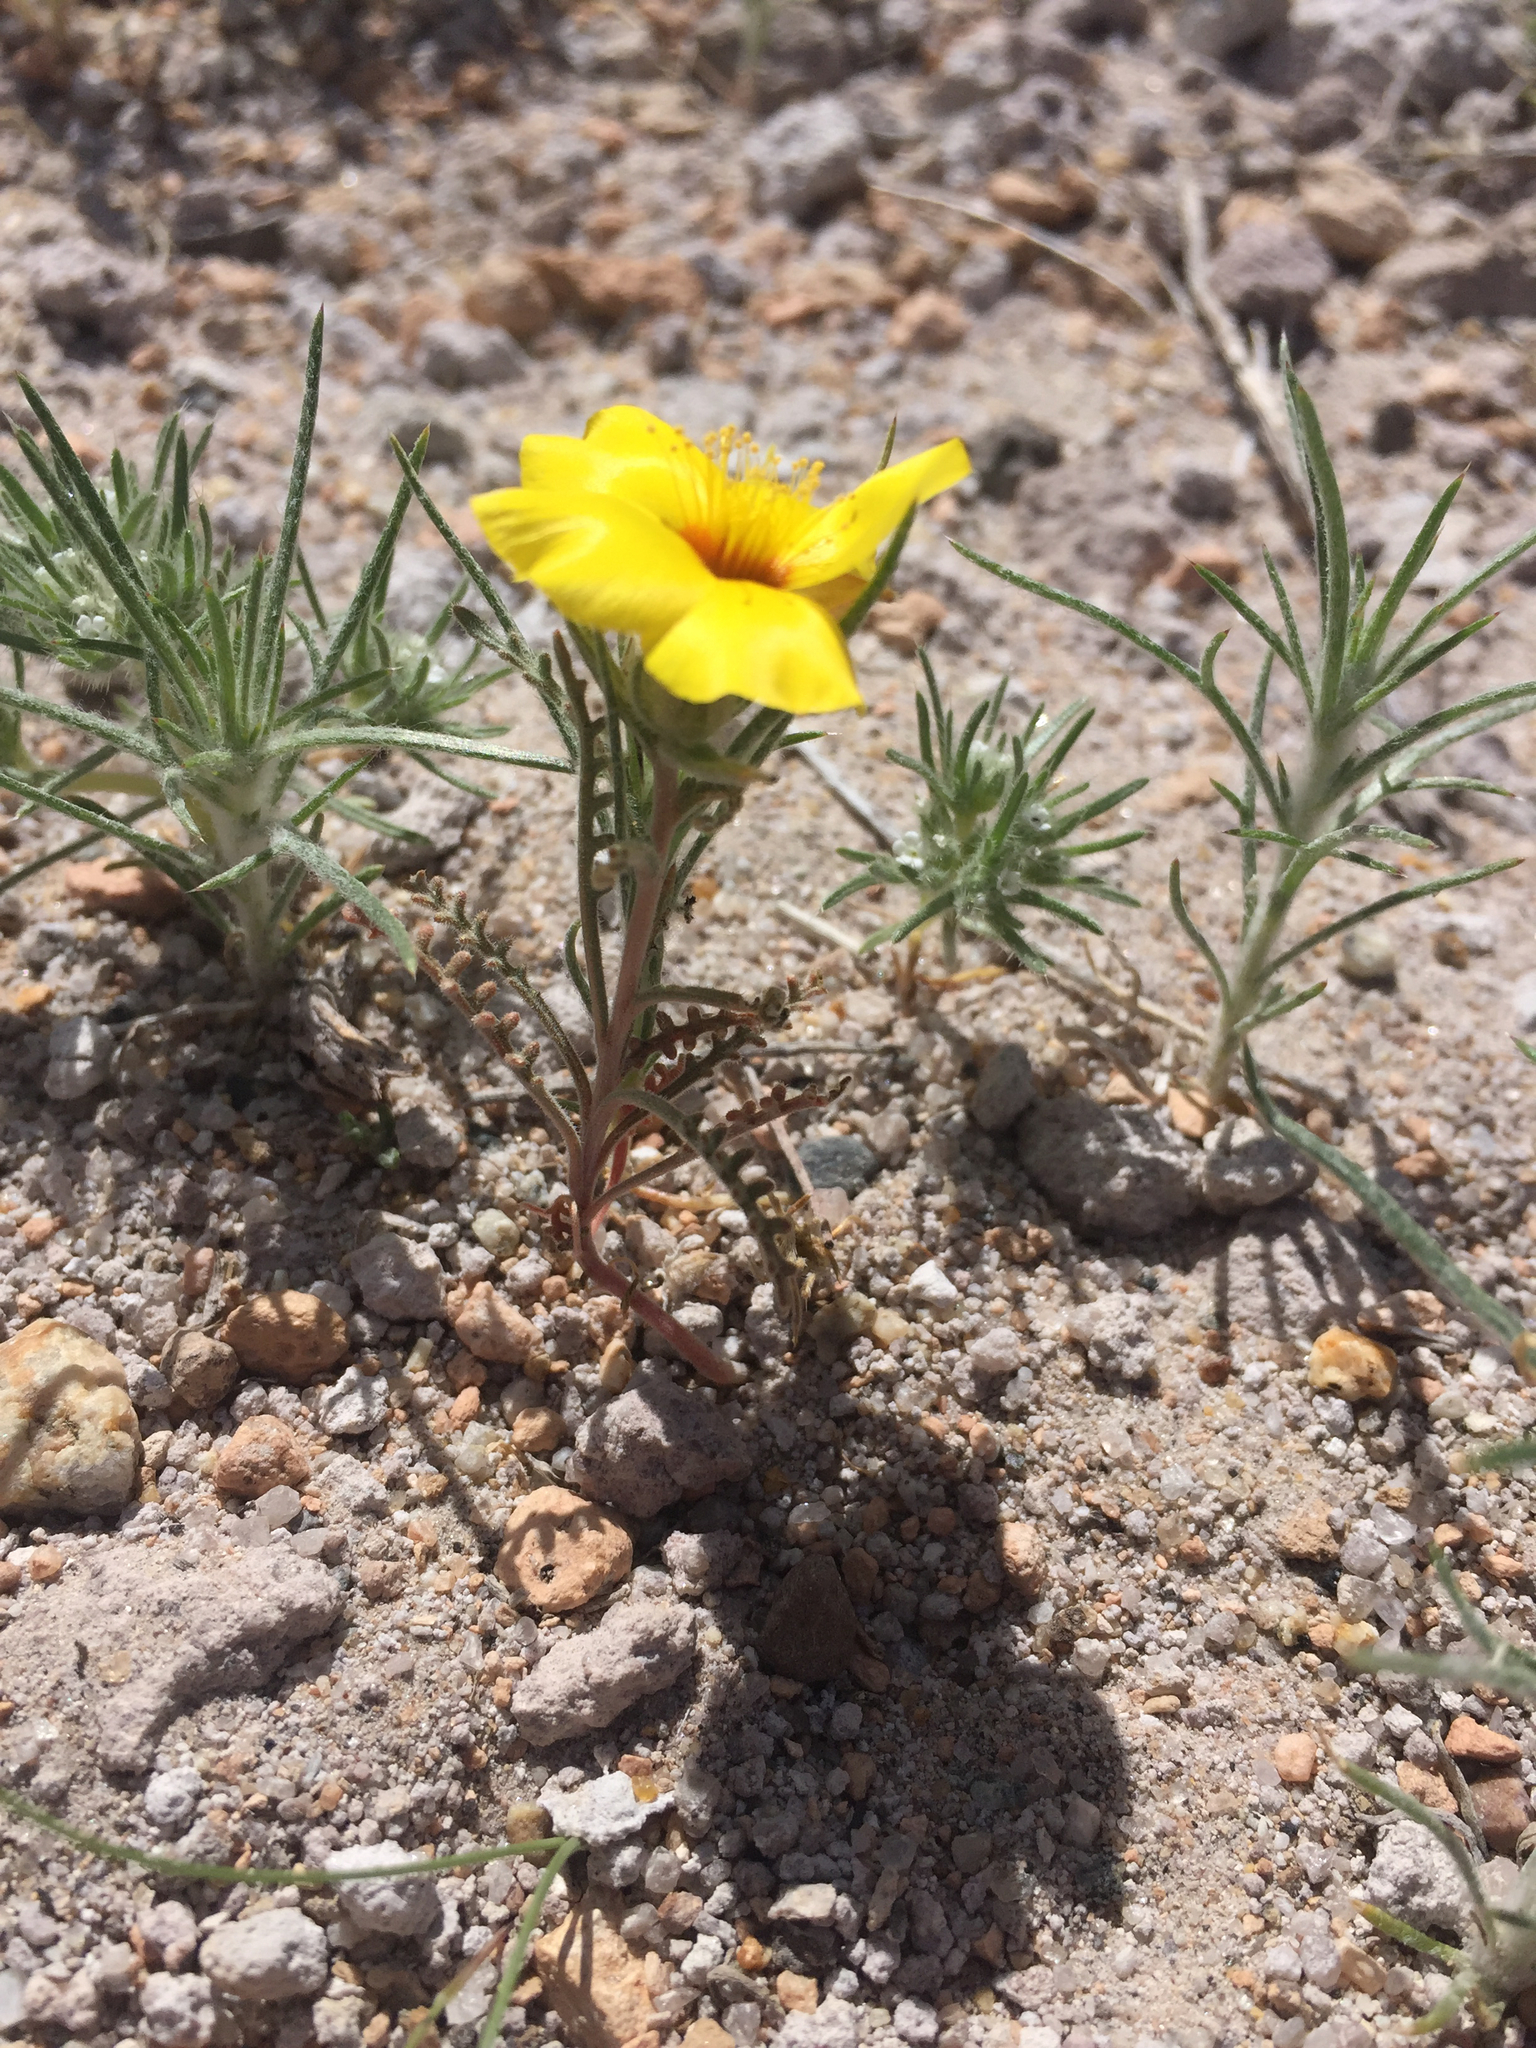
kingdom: Plantae
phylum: Tracheophyta
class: Magnoliopsida
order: Cornales
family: Loasaceae
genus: Mentzelia
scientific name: Mentzelia nitens
